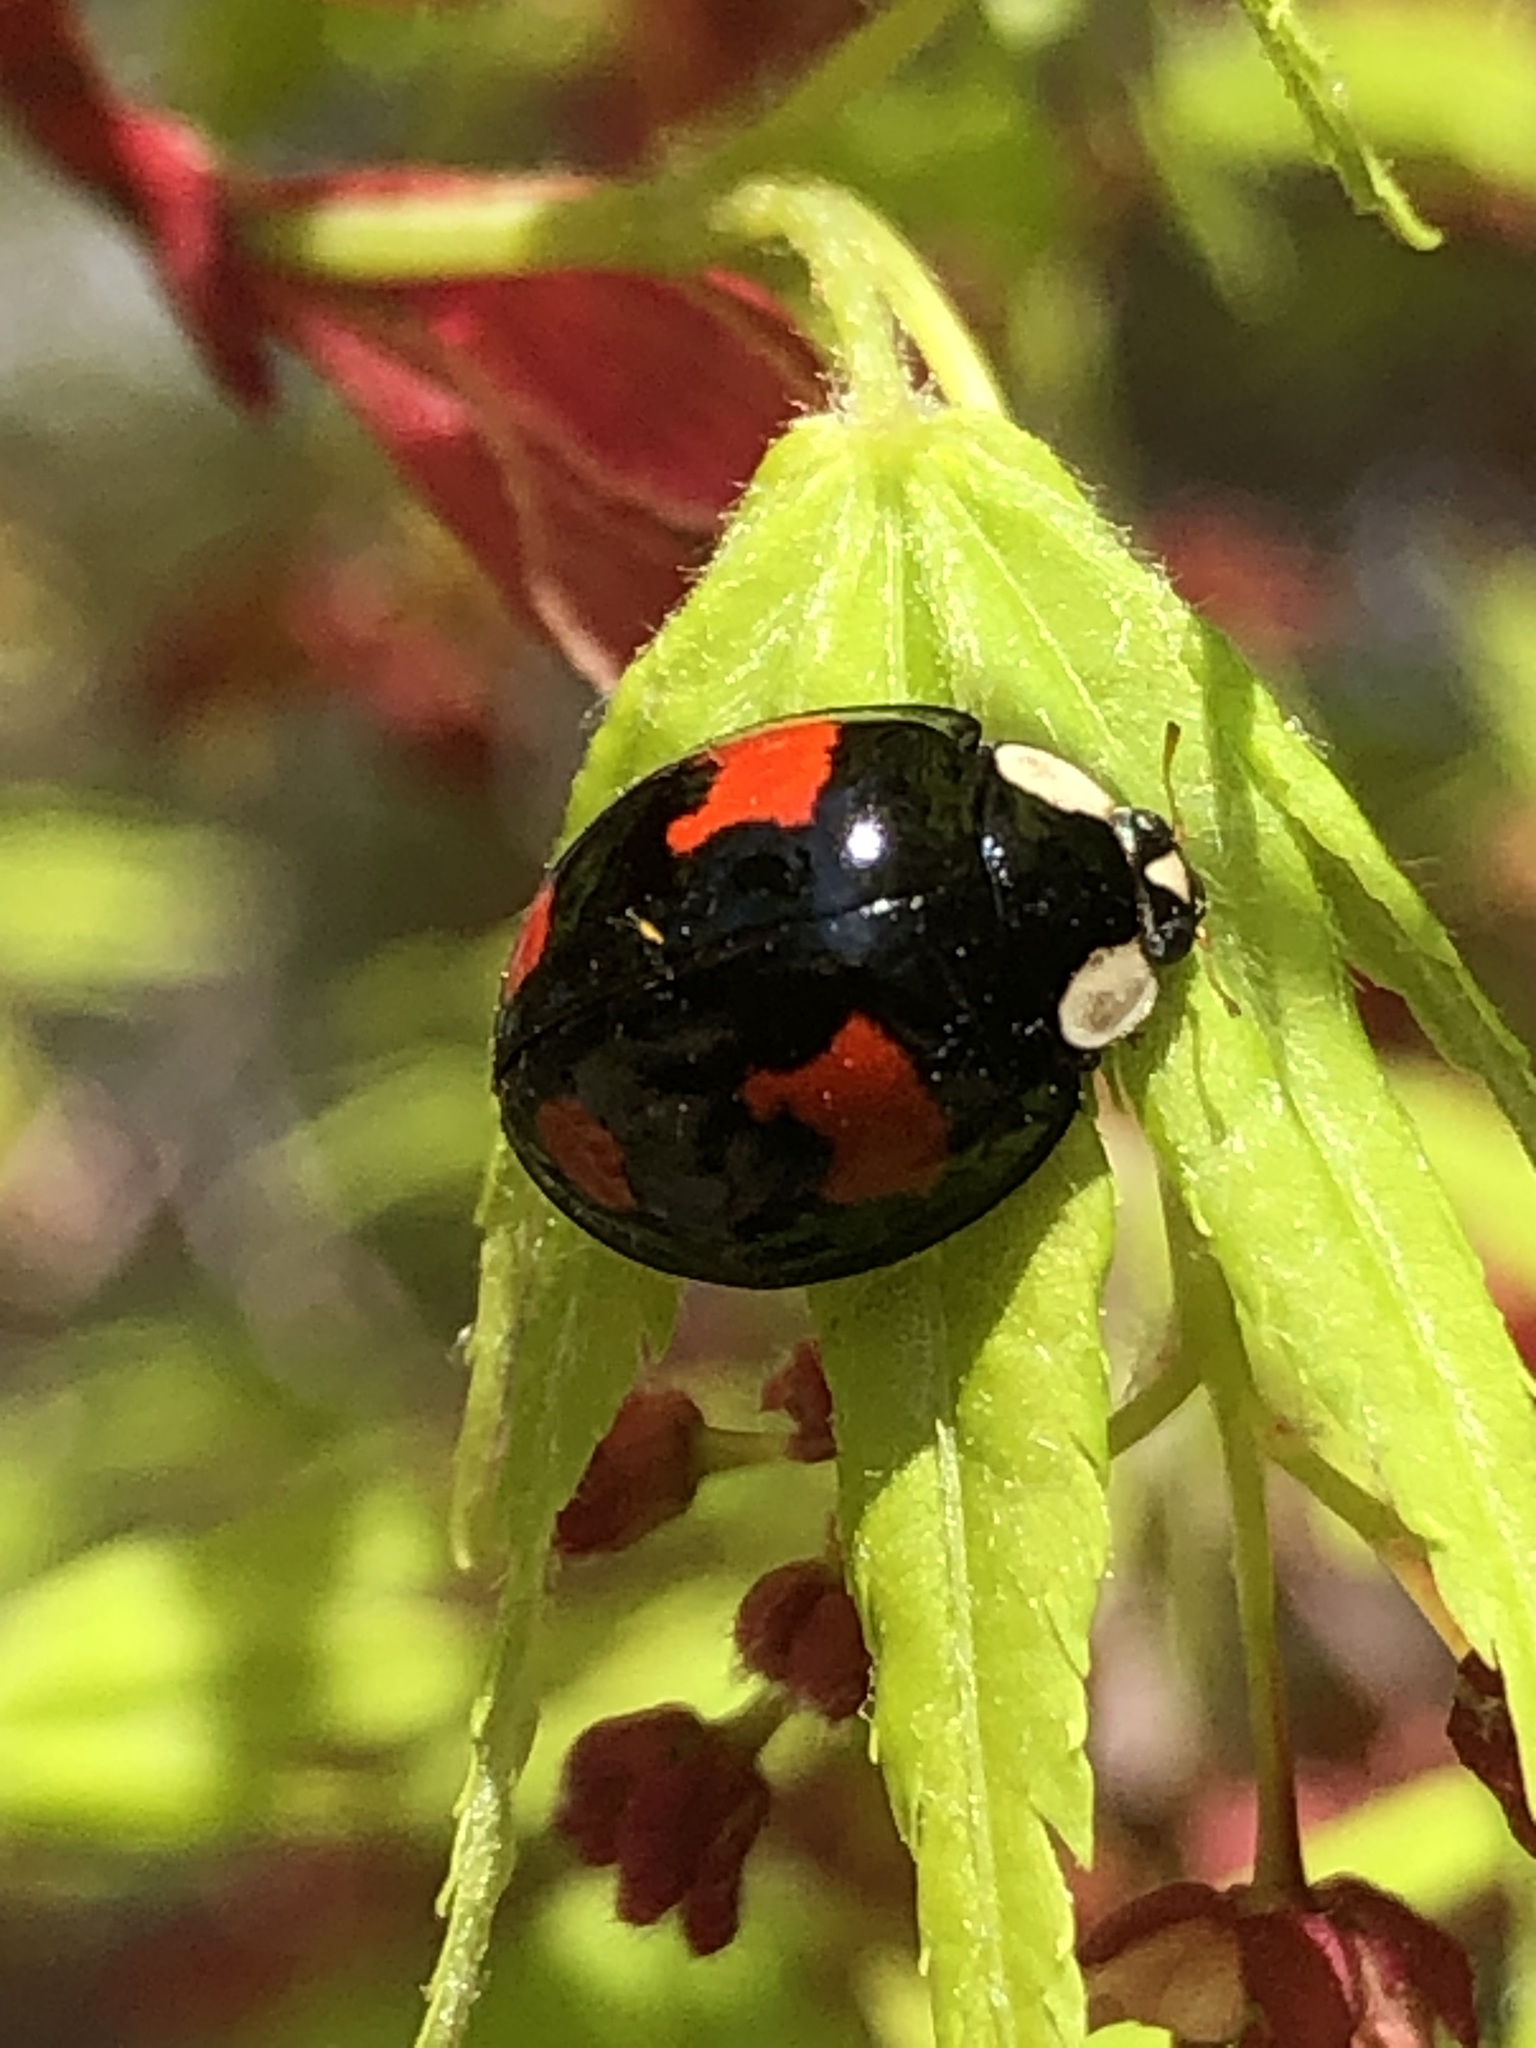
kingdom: Animalia
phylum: Arthropoda
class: Insecta
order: Coleoptera
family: Coccinellidae
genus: Harmonia
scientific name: Harmonia axyridis
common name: Harlequin ladybird
